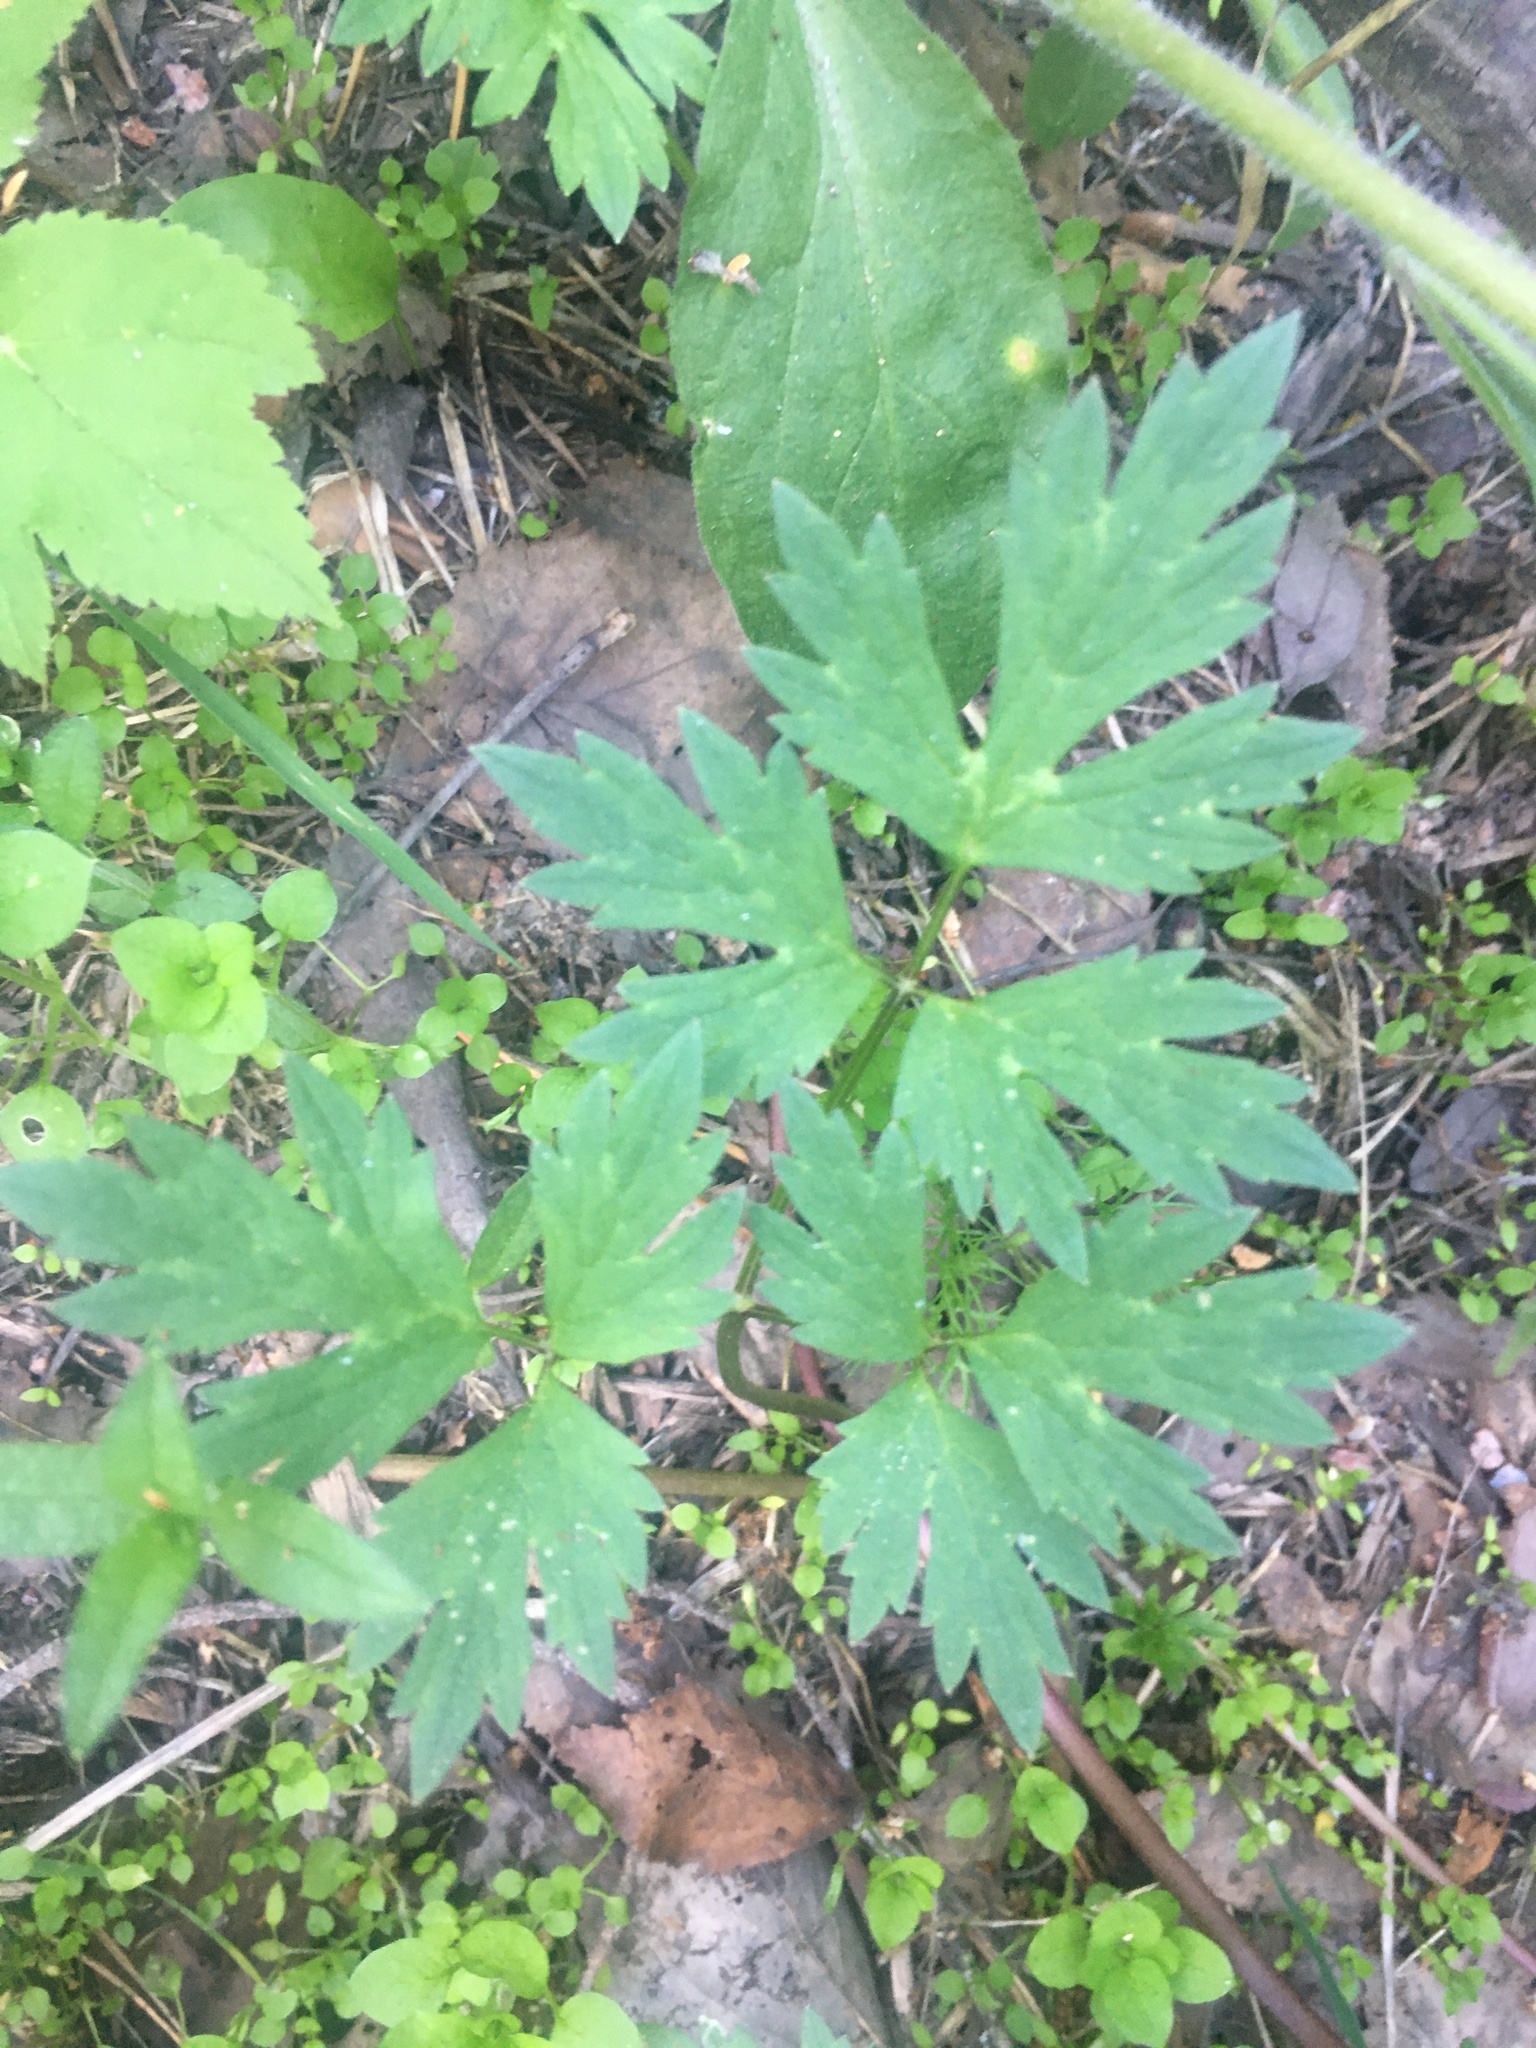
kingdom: Plantae
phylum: Tracheophyta
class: Magnoliopsida
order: Ranunculales
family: Ranunculaceae
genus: Ranunculus
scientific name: Ranunculus repens
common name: Creeping buttercup
